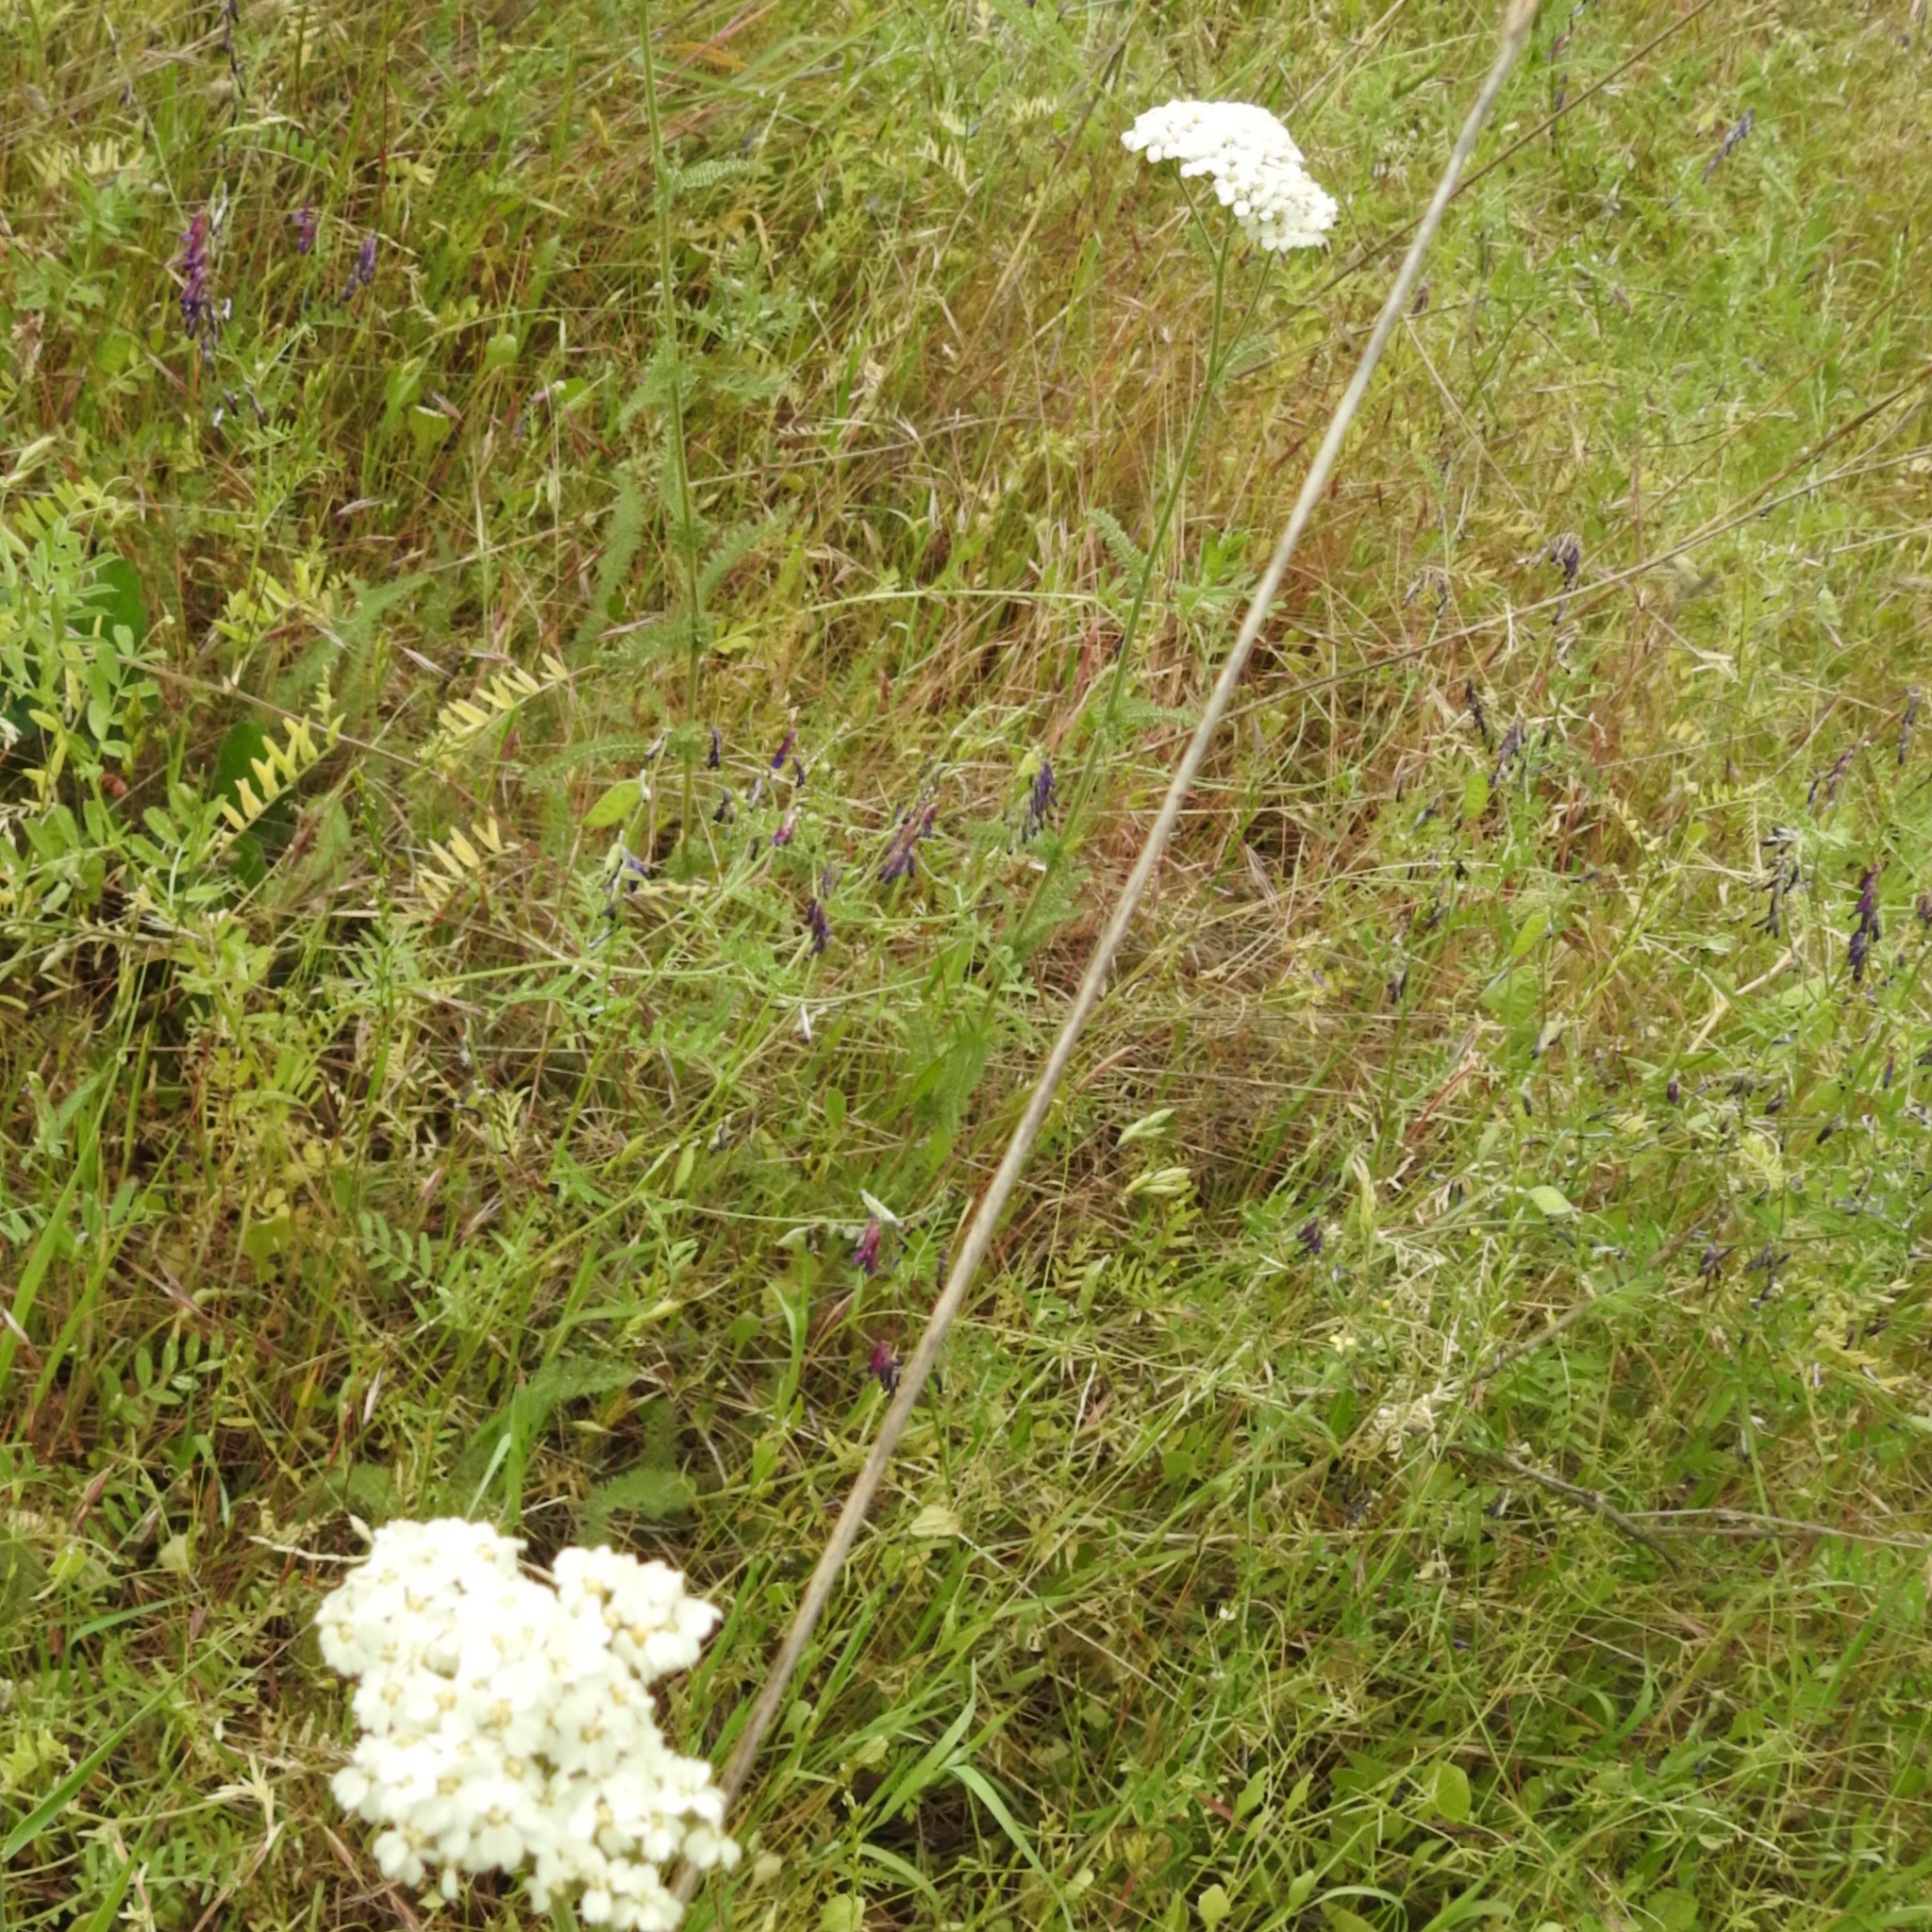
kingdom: Plantae
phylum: Tracheophyta
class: Magnoliopsida
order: Asterales
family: Asteraceae
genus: Achillea
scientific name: Achillea millefolium
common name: Yarrow
